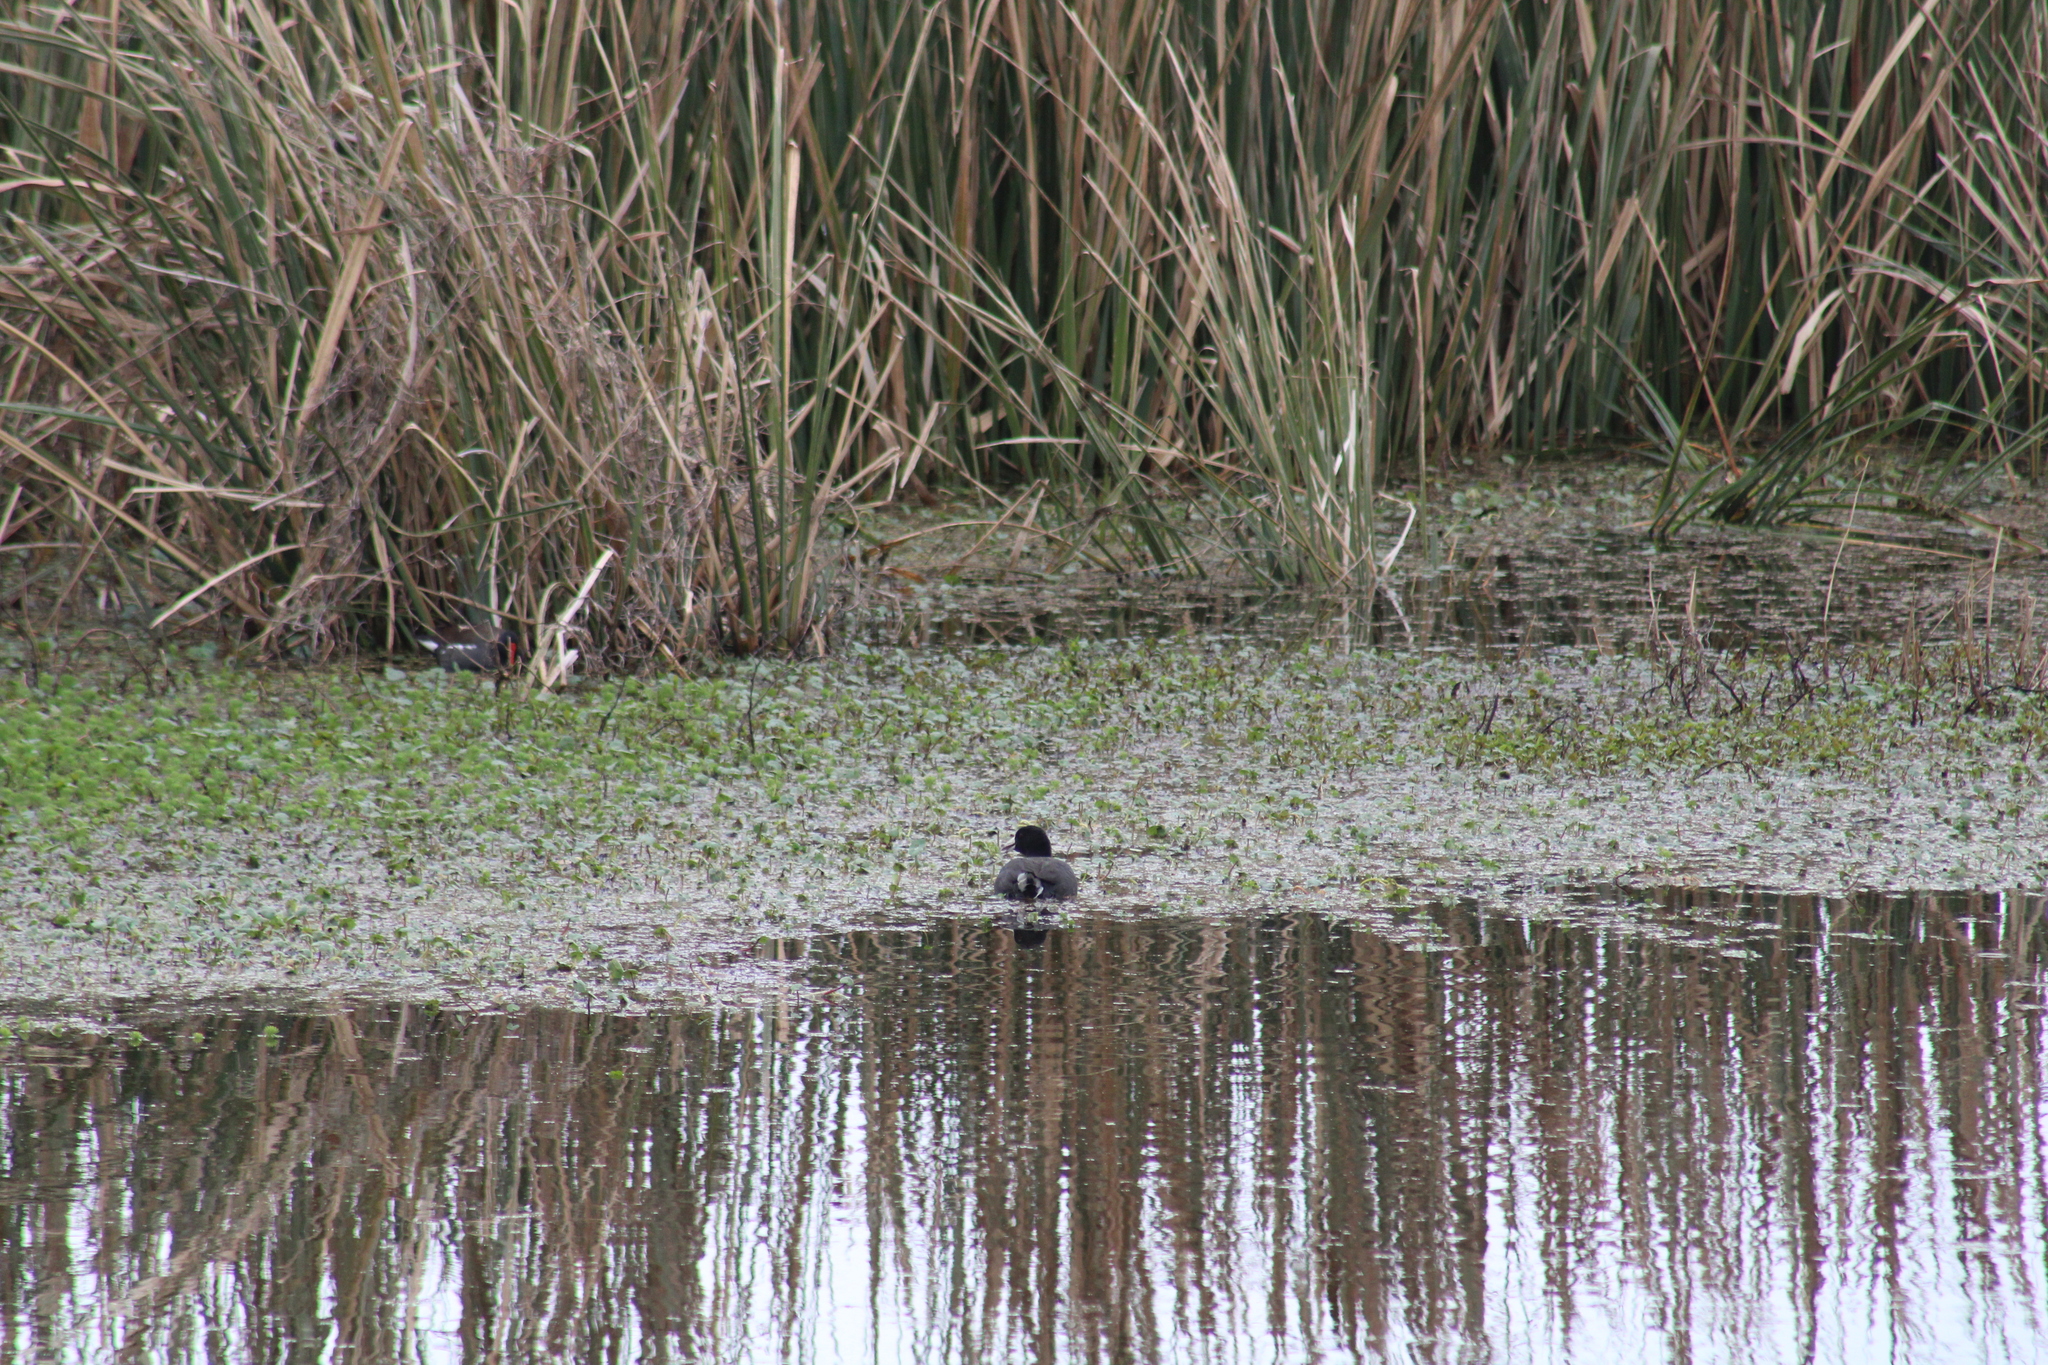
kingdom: Animalia
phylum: Chordata
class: Aves
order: Gruiformes
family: Rallidae
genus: Fulica
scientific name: Fulica americana
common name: American coot
